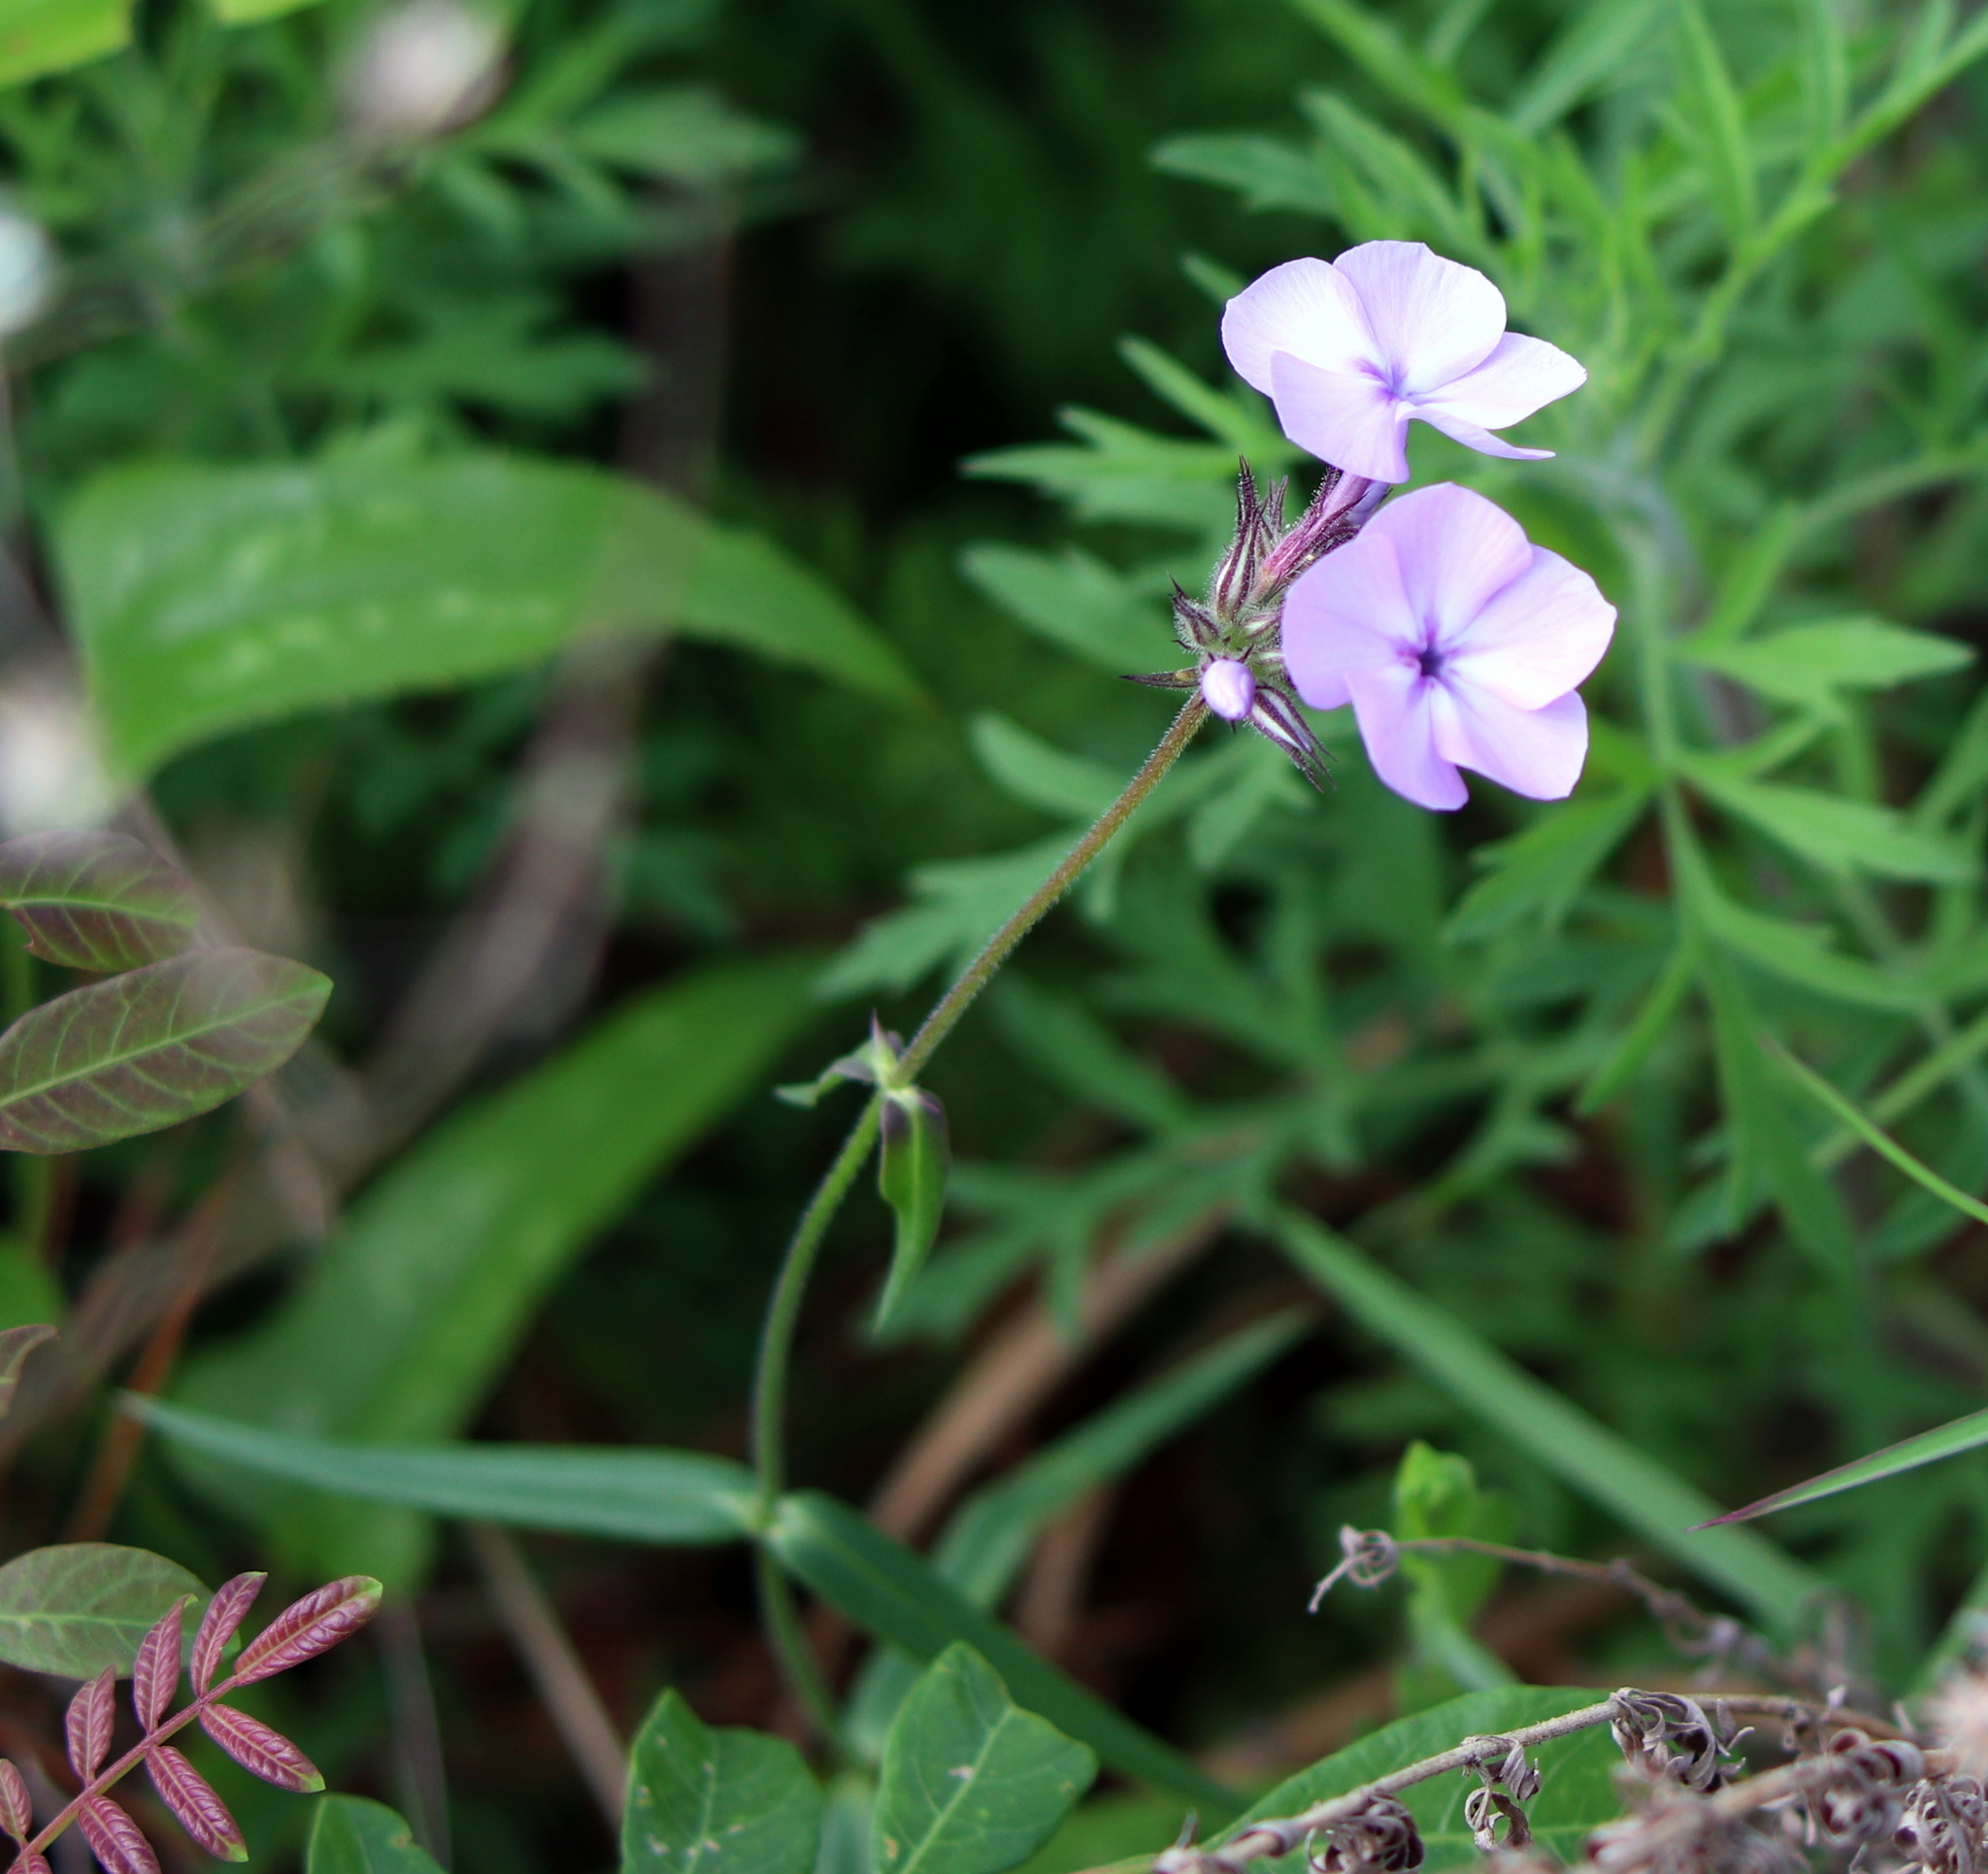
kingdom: Plantae
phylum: Tracheophyta
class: Magnoliopsida
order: Ericales
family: Polemoniaceae
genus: Phlox
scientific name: Phlox pilosa
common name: Prairie phlox
